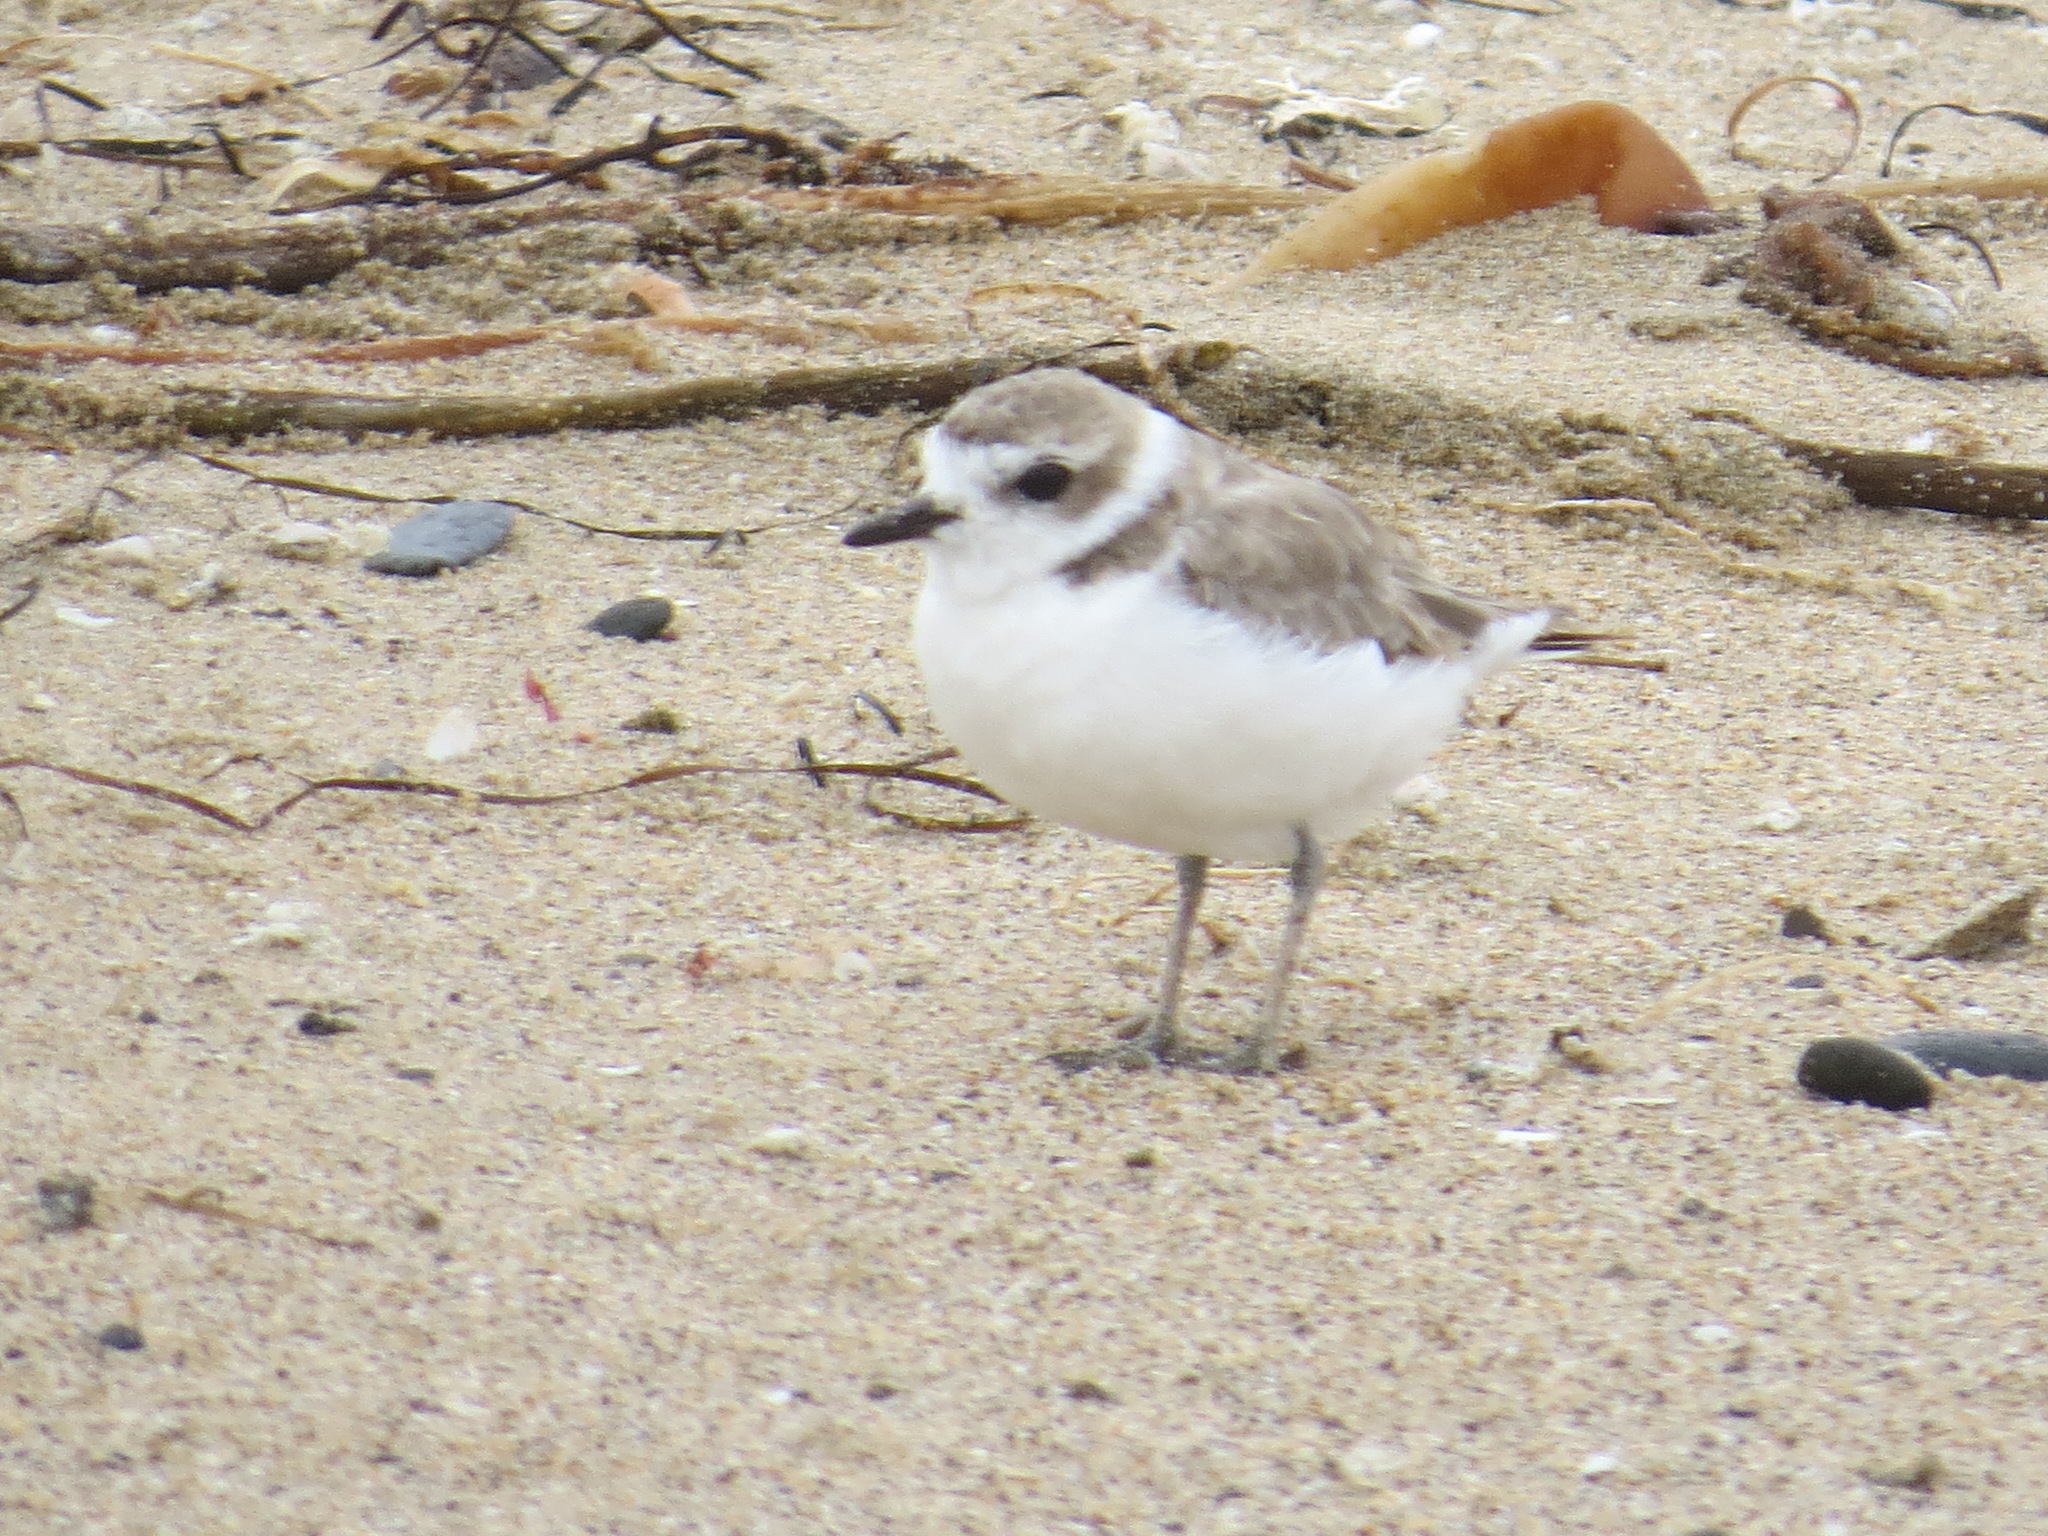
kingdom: Animalia
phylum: Chordata
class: Aves
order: Charadriiformes
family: Charadriidae
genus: Anarhynchus
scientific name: Anarhynchus
